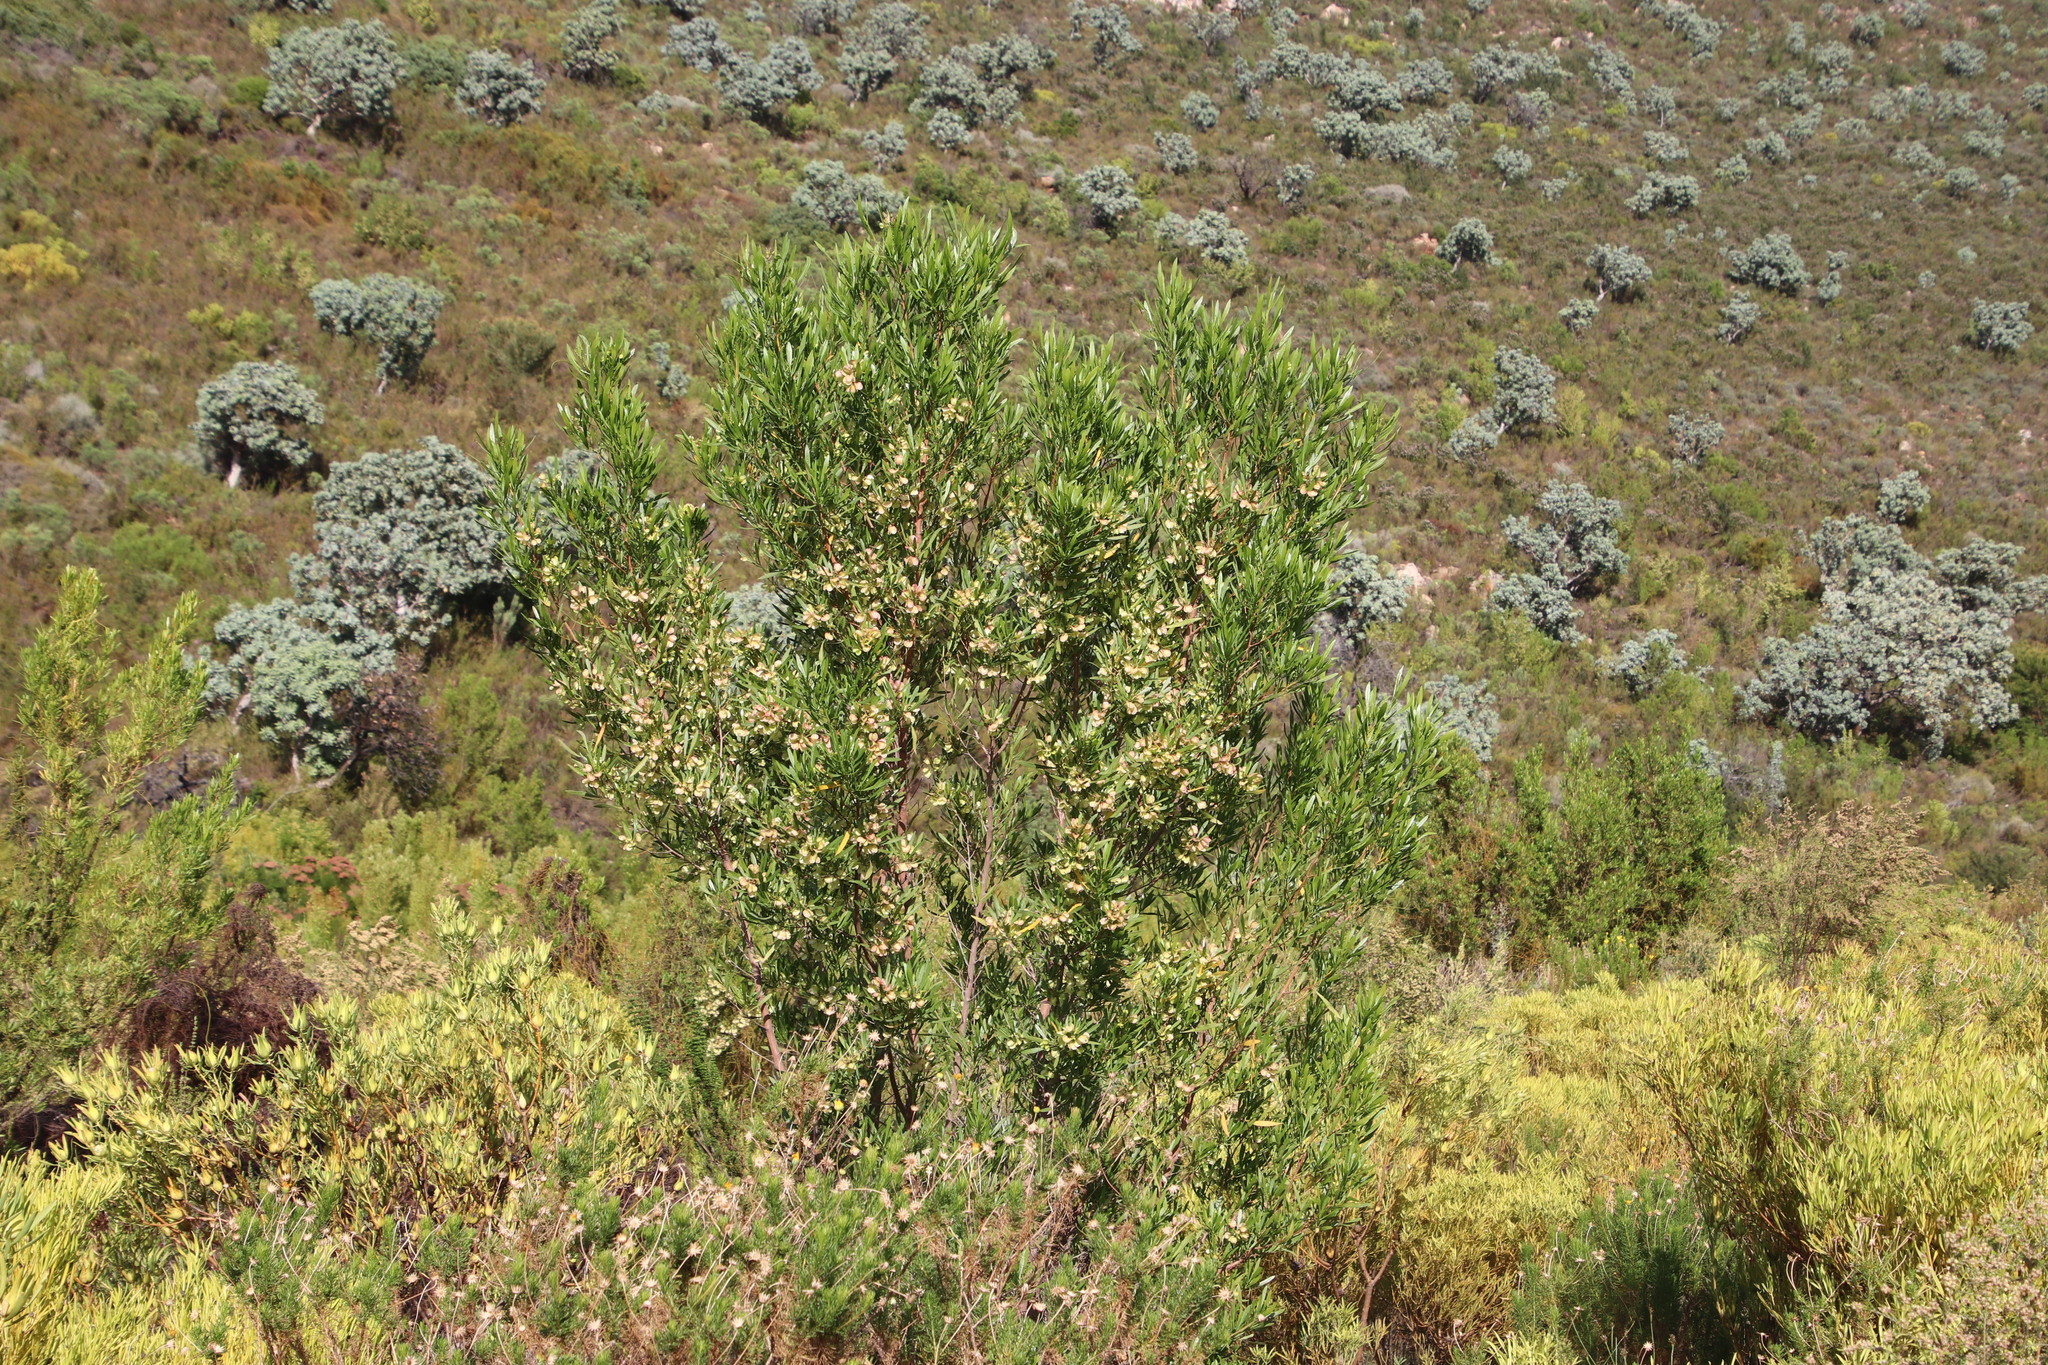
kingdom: Plantae
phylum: Tracheophyta
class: Magnoliopsida
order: Sapindales
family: Sapindaceae
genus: Dodonaea
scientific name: Dodonaea viscosa
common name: Hopbush
